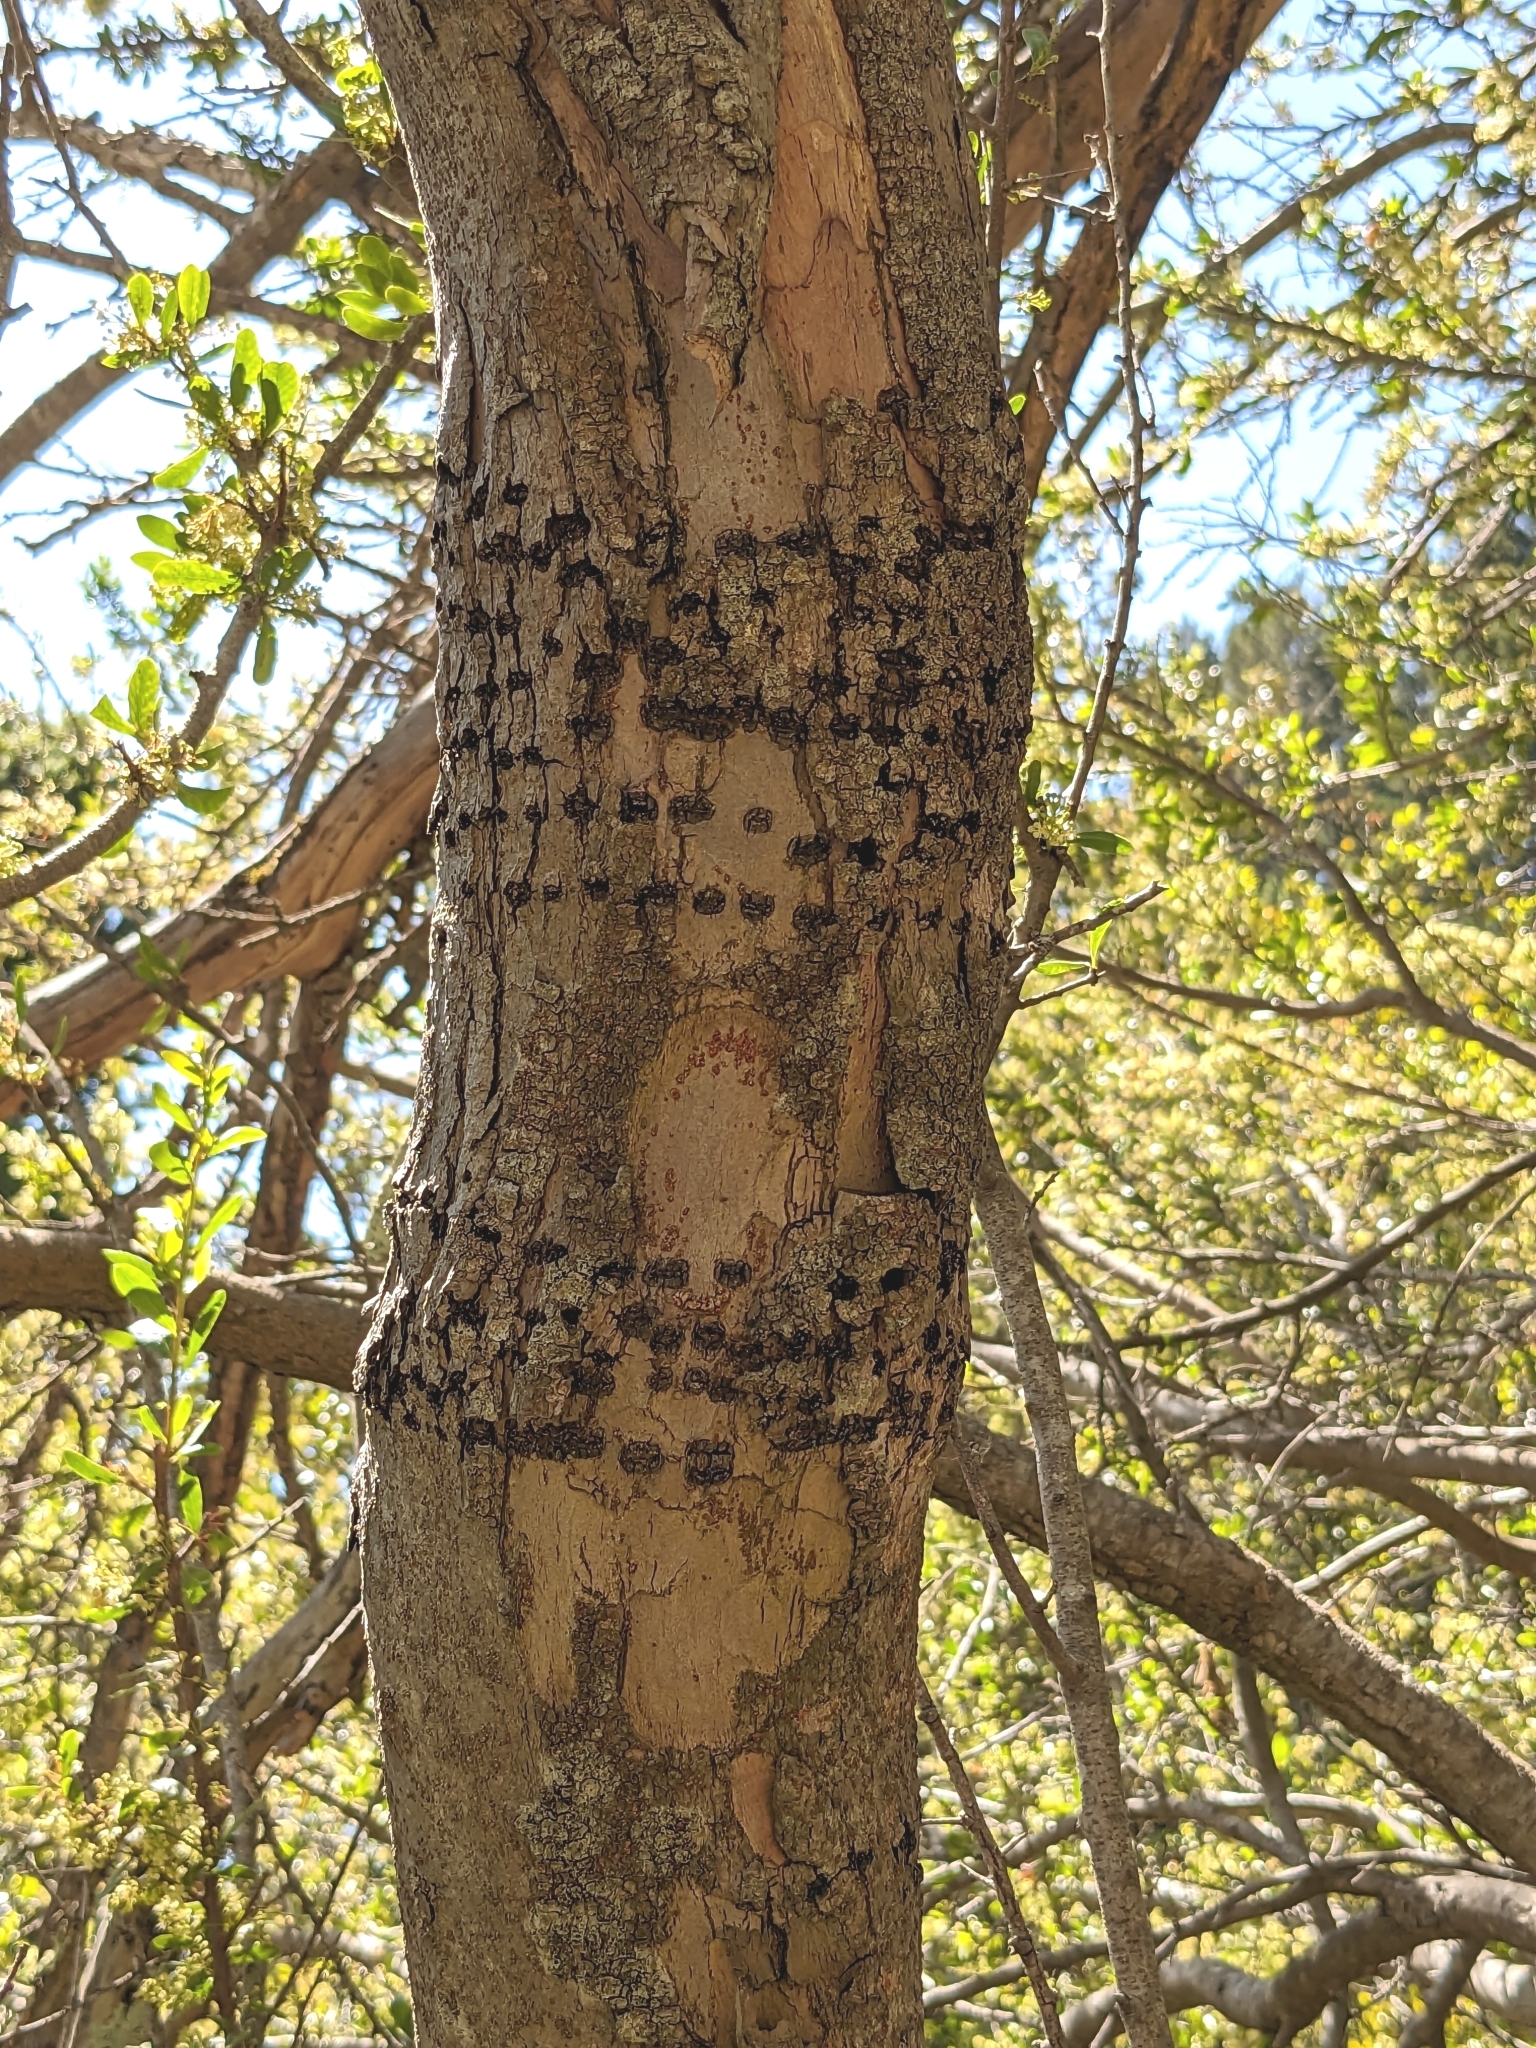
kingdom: Animalia
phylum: Chordata
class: Aves
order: Piciformes
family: Picidae
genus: Sphyrapicus
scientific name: Sphyrapicus
